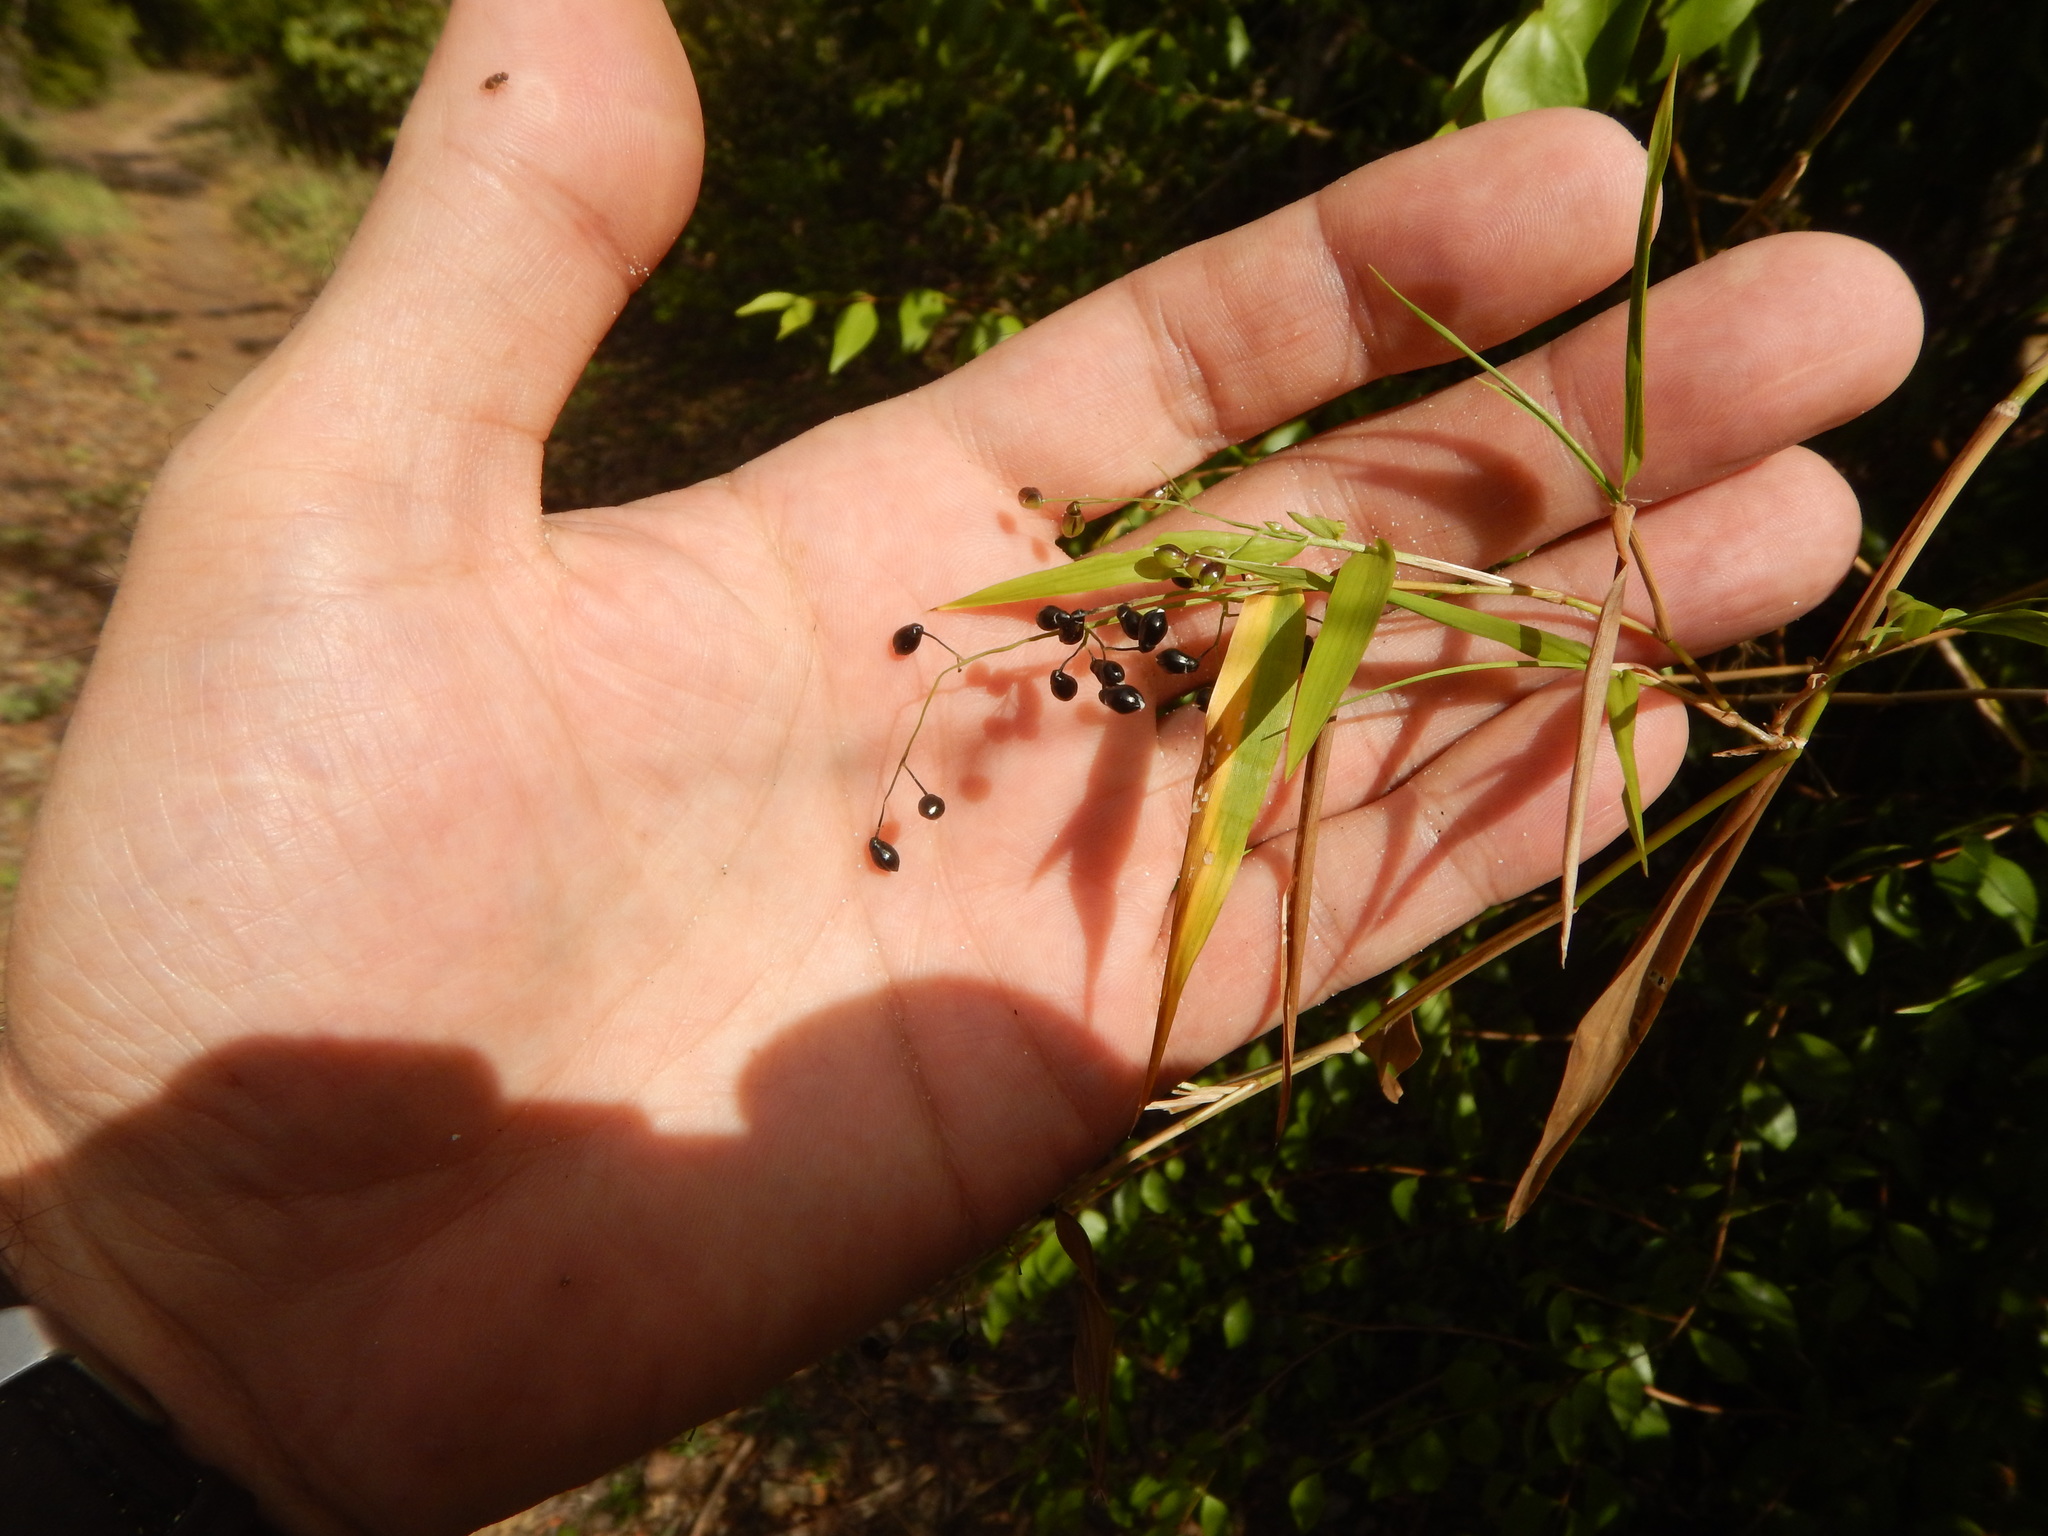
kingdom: Plantae
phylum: Tracheophyta
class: Liliopsida
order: Poales
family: Poaceae
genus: Lasiacis
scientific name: Lasiacis divaricata
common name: Smallcane
